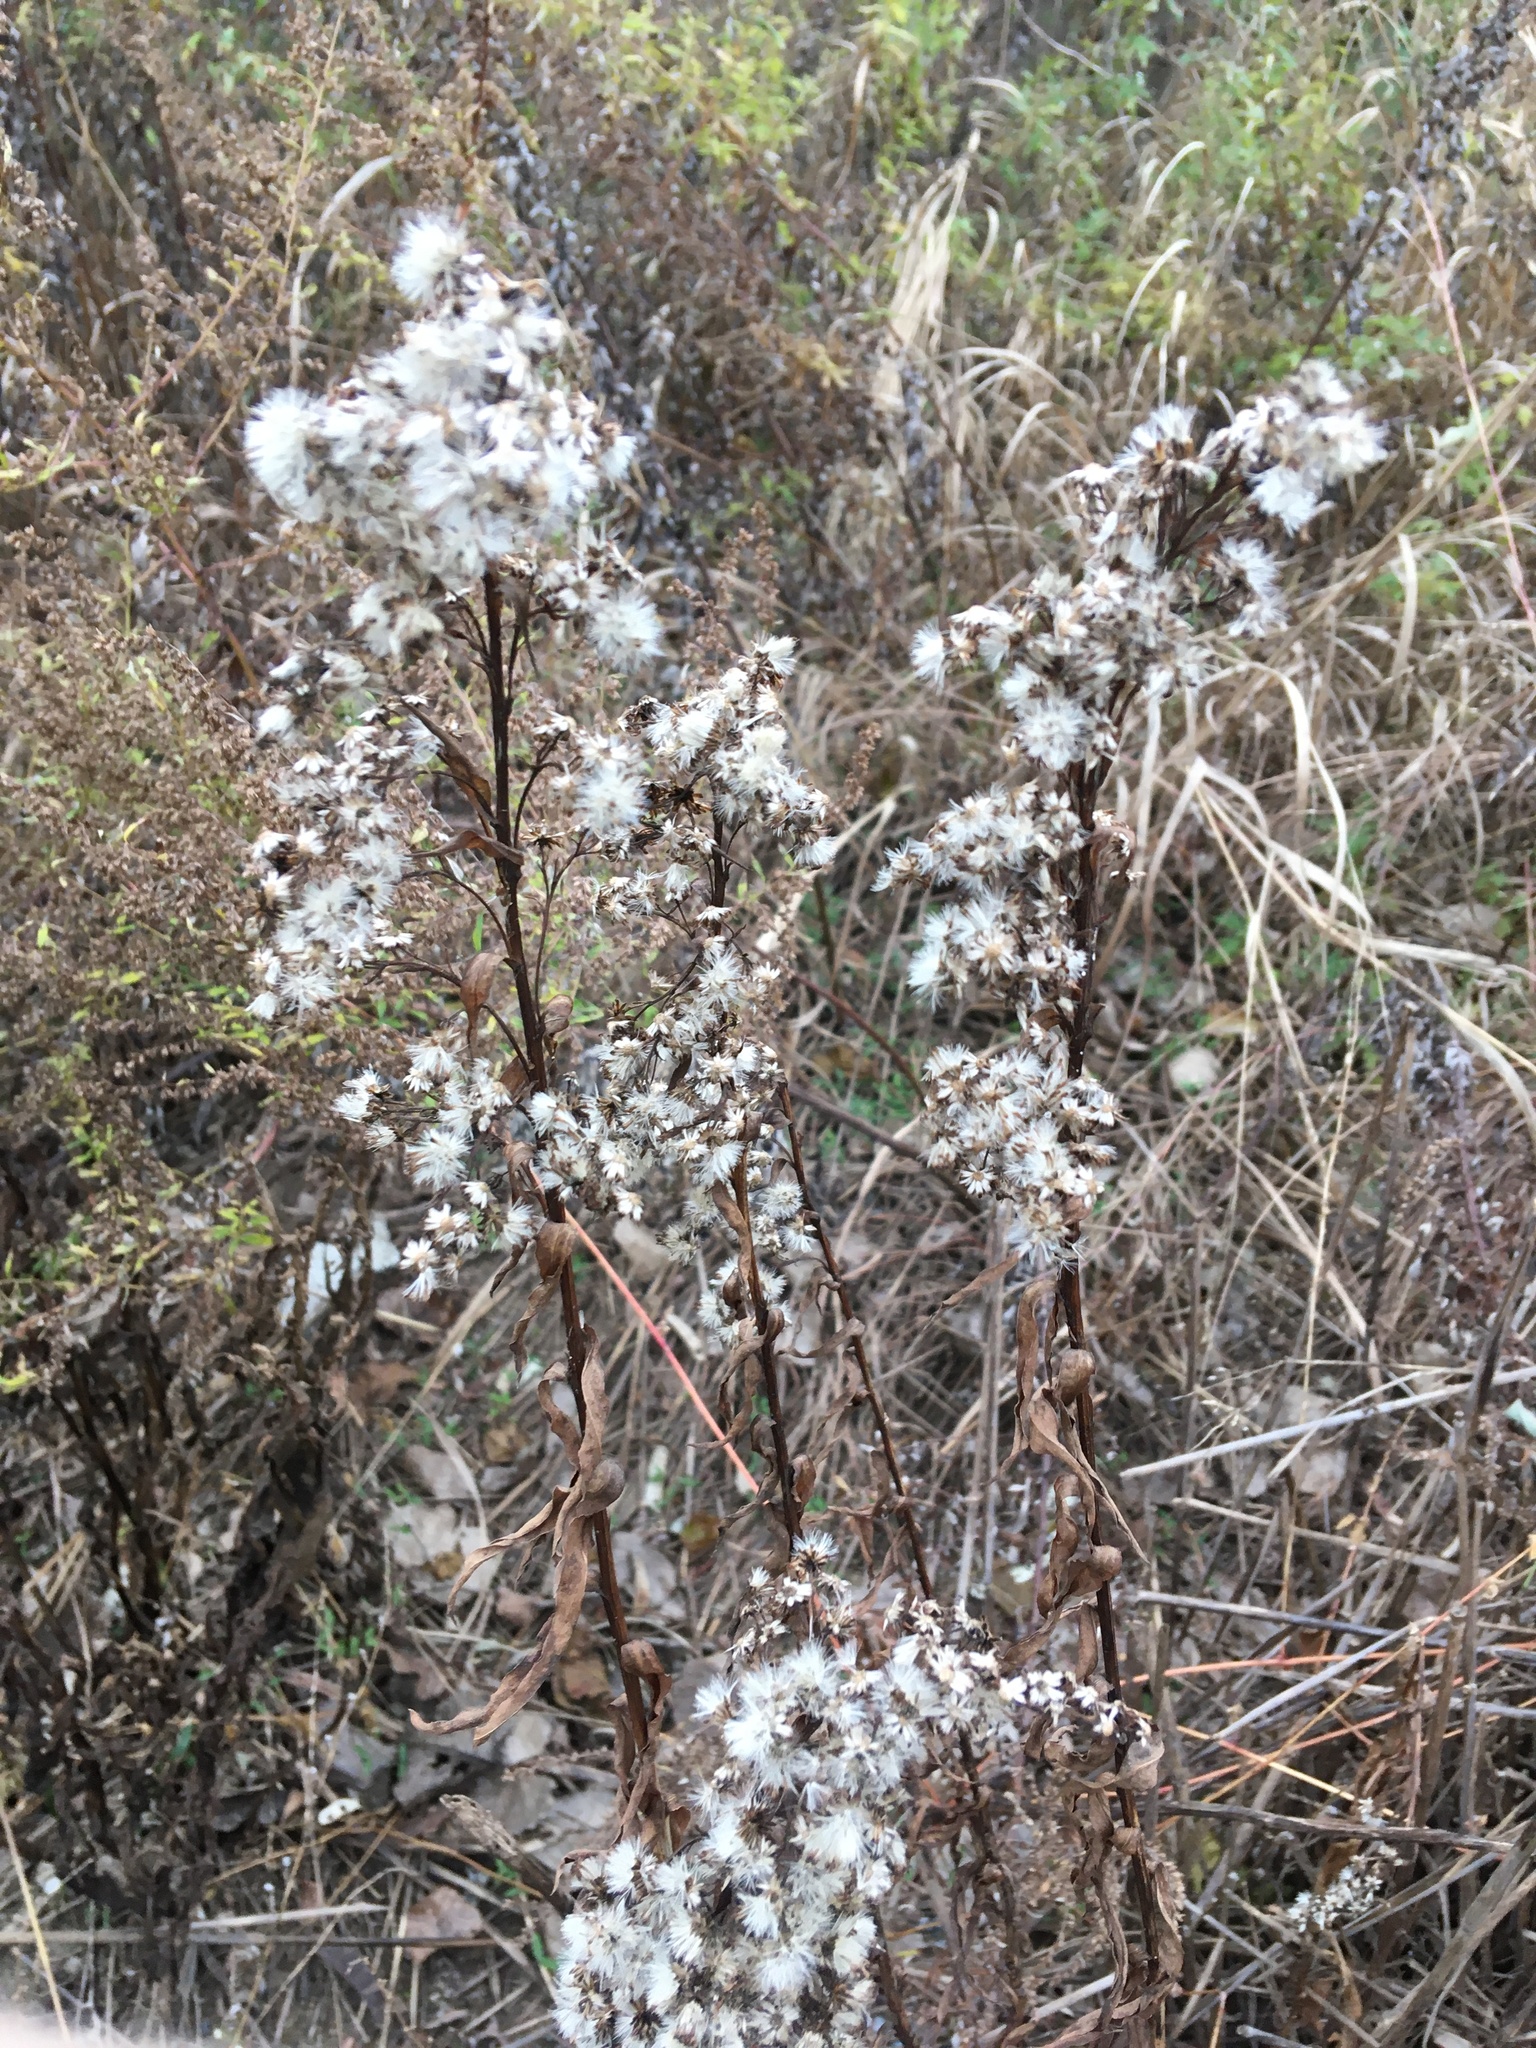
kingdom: Plantae
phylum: Tracheophyta
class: Magnoliopsida
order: Asterales
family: Asteraceae
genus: Solidago
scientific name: Solidago sempervirens
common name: Salt-marsh goldenrod
